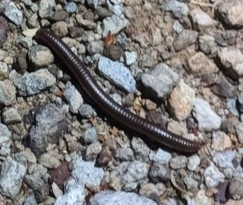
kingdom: Animalia
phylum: Arthropoda
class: Diplopoda
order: Spirostreptida
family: Spirostreptidae
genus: Orthoporus
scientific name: Orthoporus ornatus
